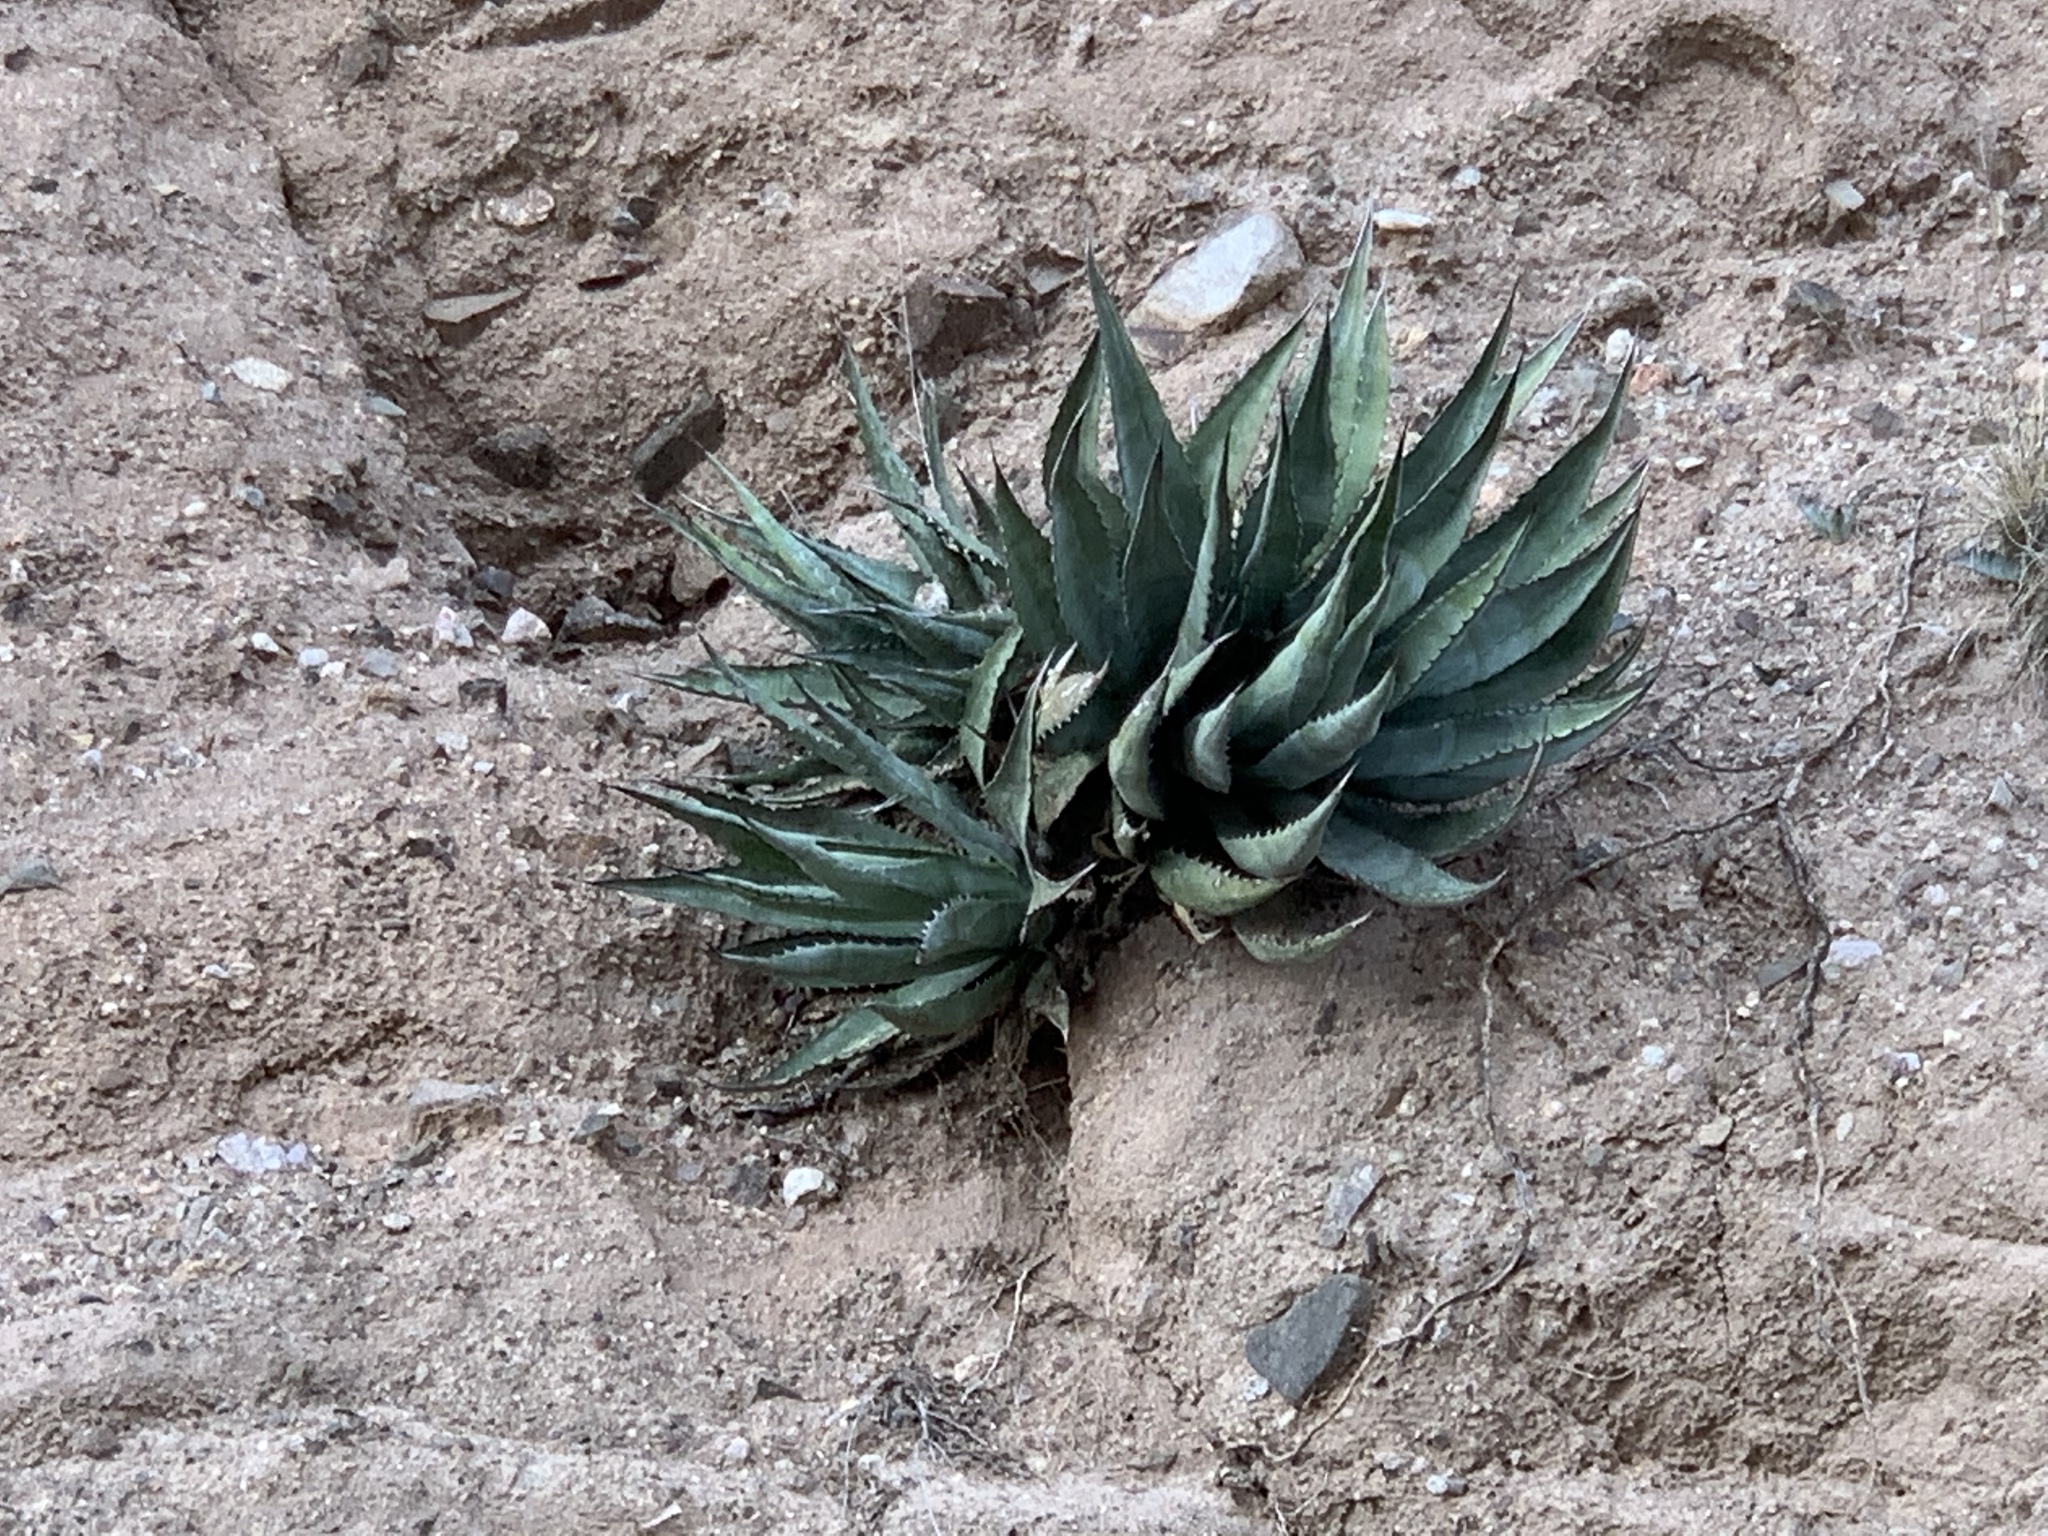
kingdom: Plantae
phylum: Tracheophyta
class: Liliopsida
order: Asparagales
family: Asparagaceae
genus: Agave
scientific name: Agave palmeri
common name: Palmer agave
